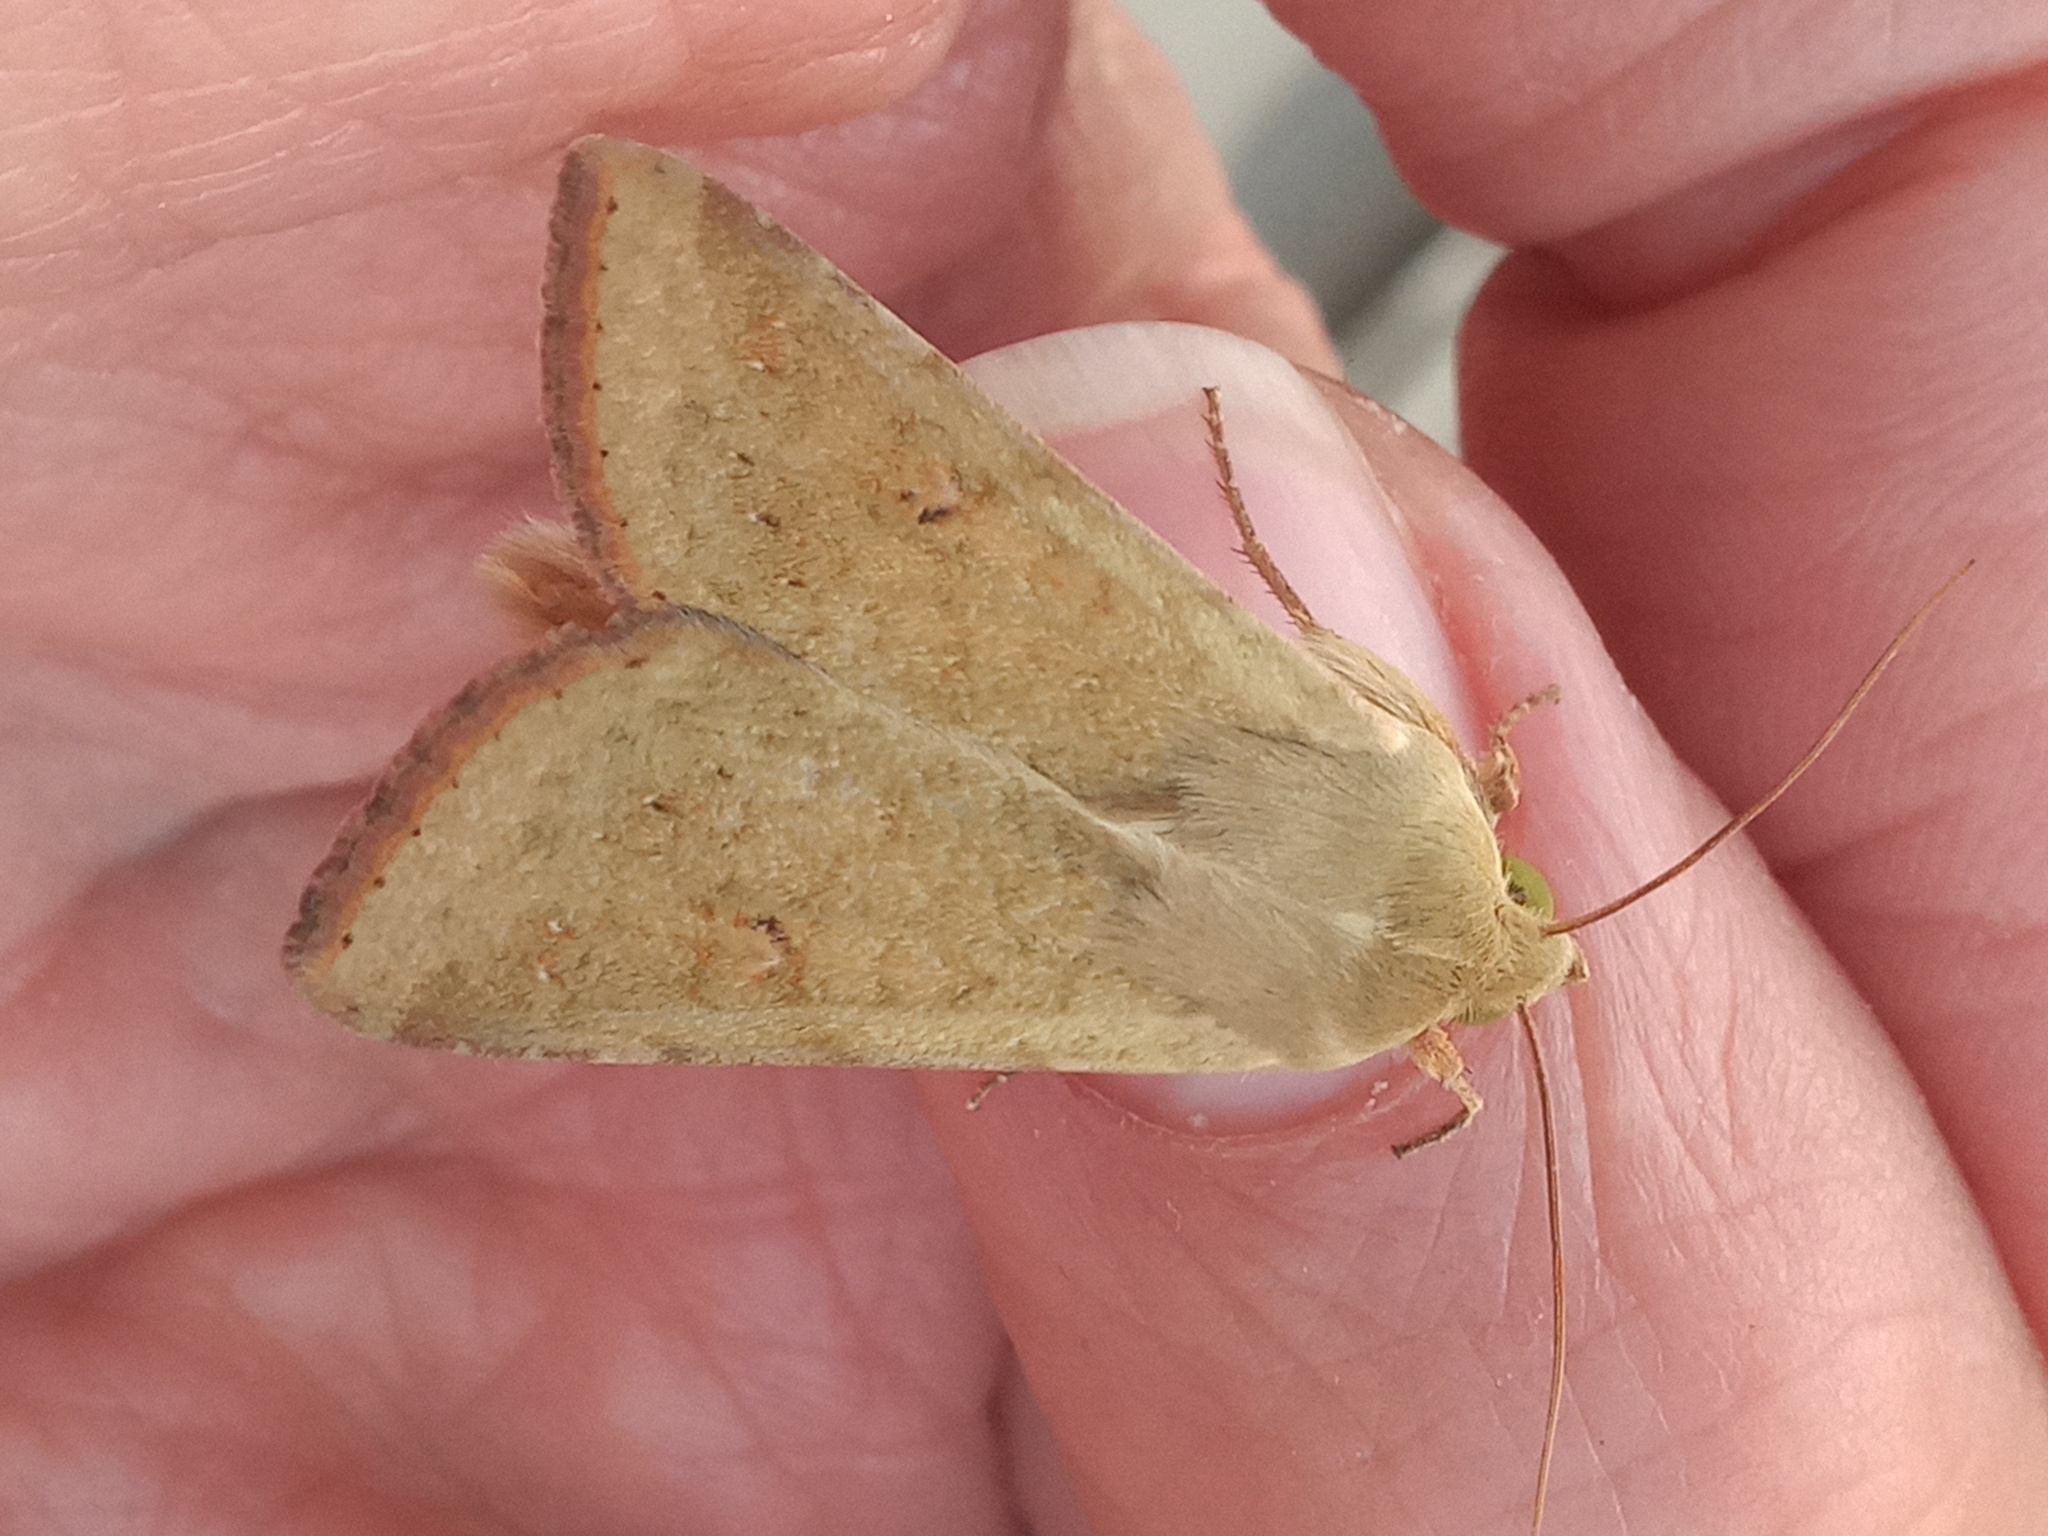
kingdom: Animalia
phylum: Arthropoda
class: Insecta
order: Lepidoptera
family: Noctuidae
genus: Helicoverpa
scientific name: Helicoverpa zea
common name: Bollworm
